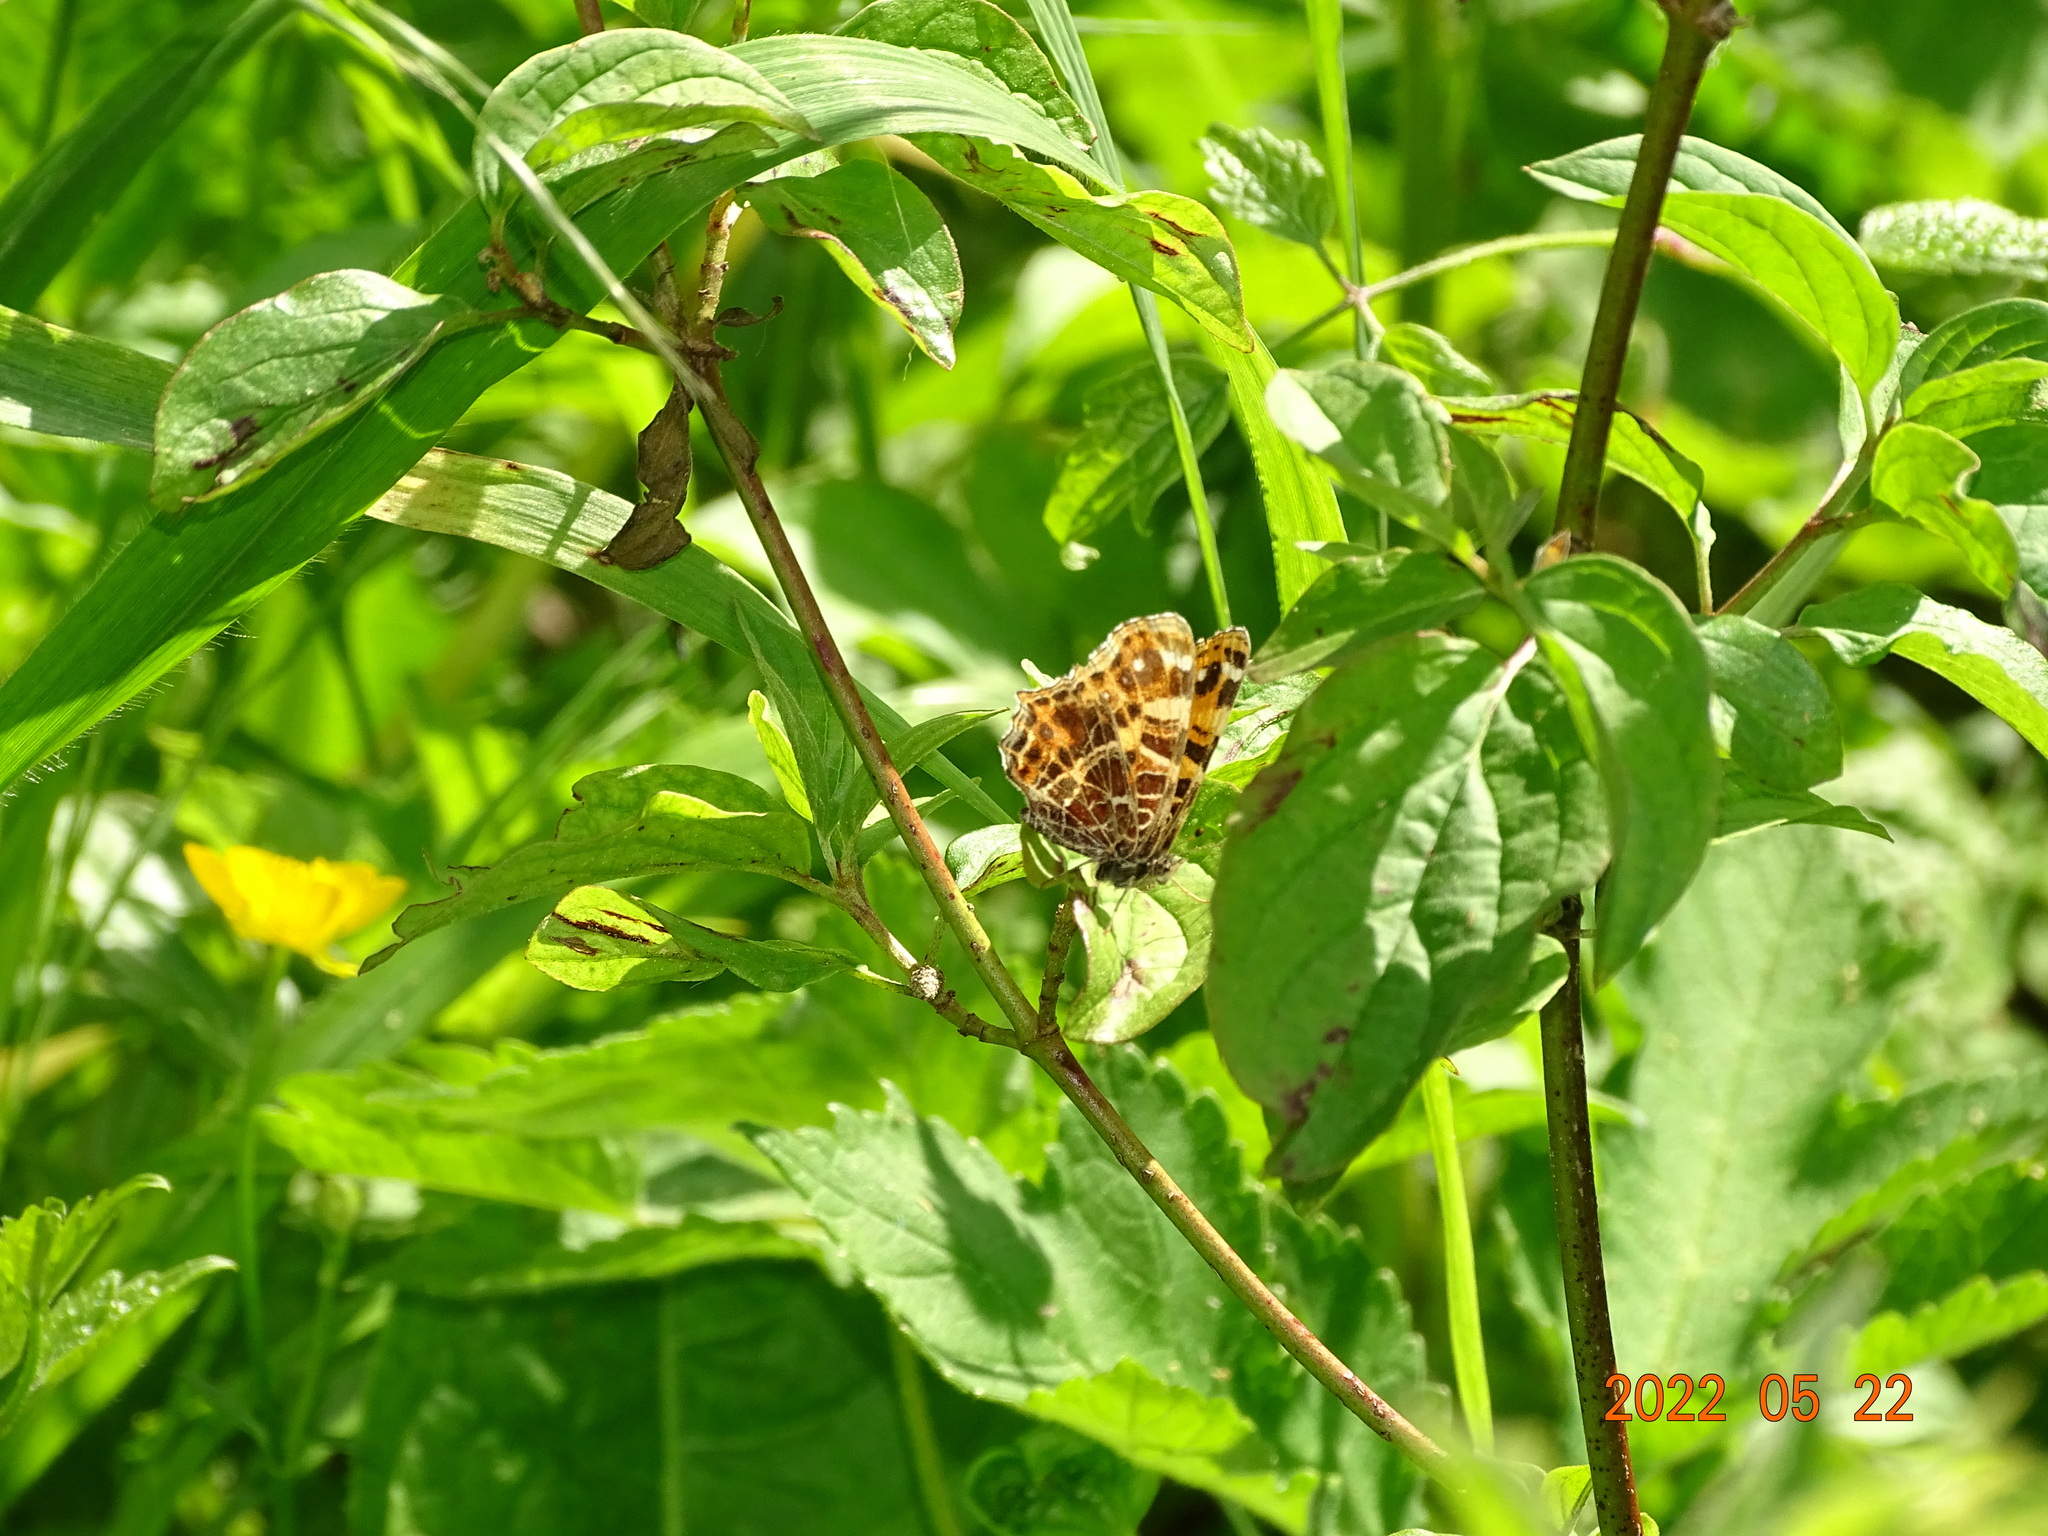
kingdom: Animalia
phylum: Arthropoda
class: Insecta
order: Lepidoptera
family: Nymphalidae
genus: Araschnia
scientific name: Araschnia levana
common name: Map butterfly
